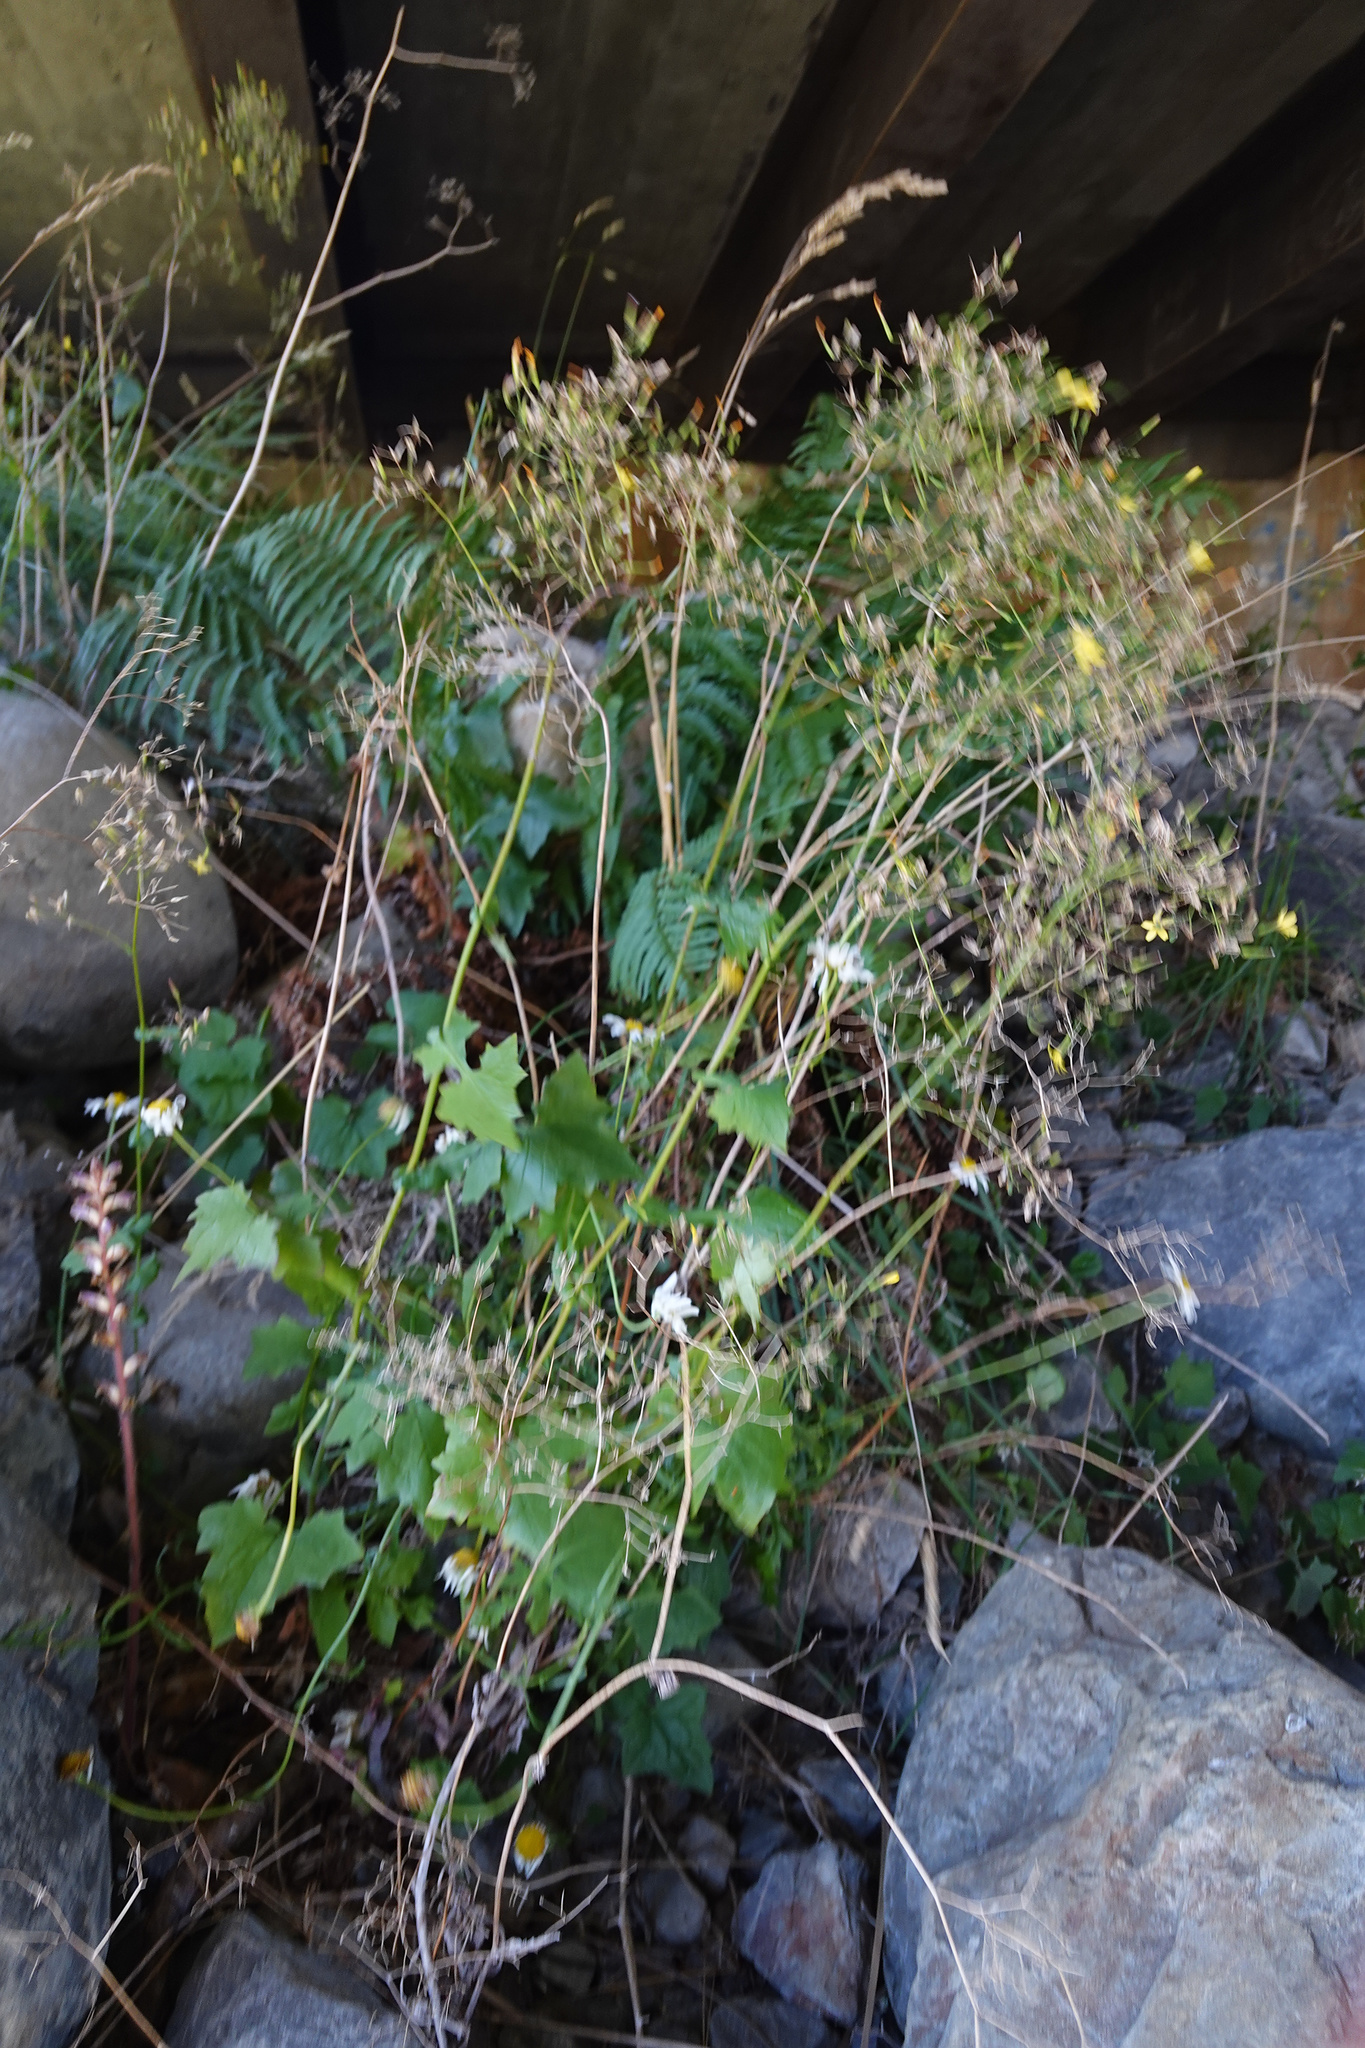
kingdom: Plantae
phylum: Tracheophyta
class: Magnoliopsida
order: Asterales
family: Asteraceae
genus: Mycelis
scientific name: Mycelis muralis
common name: Wall lettuce
